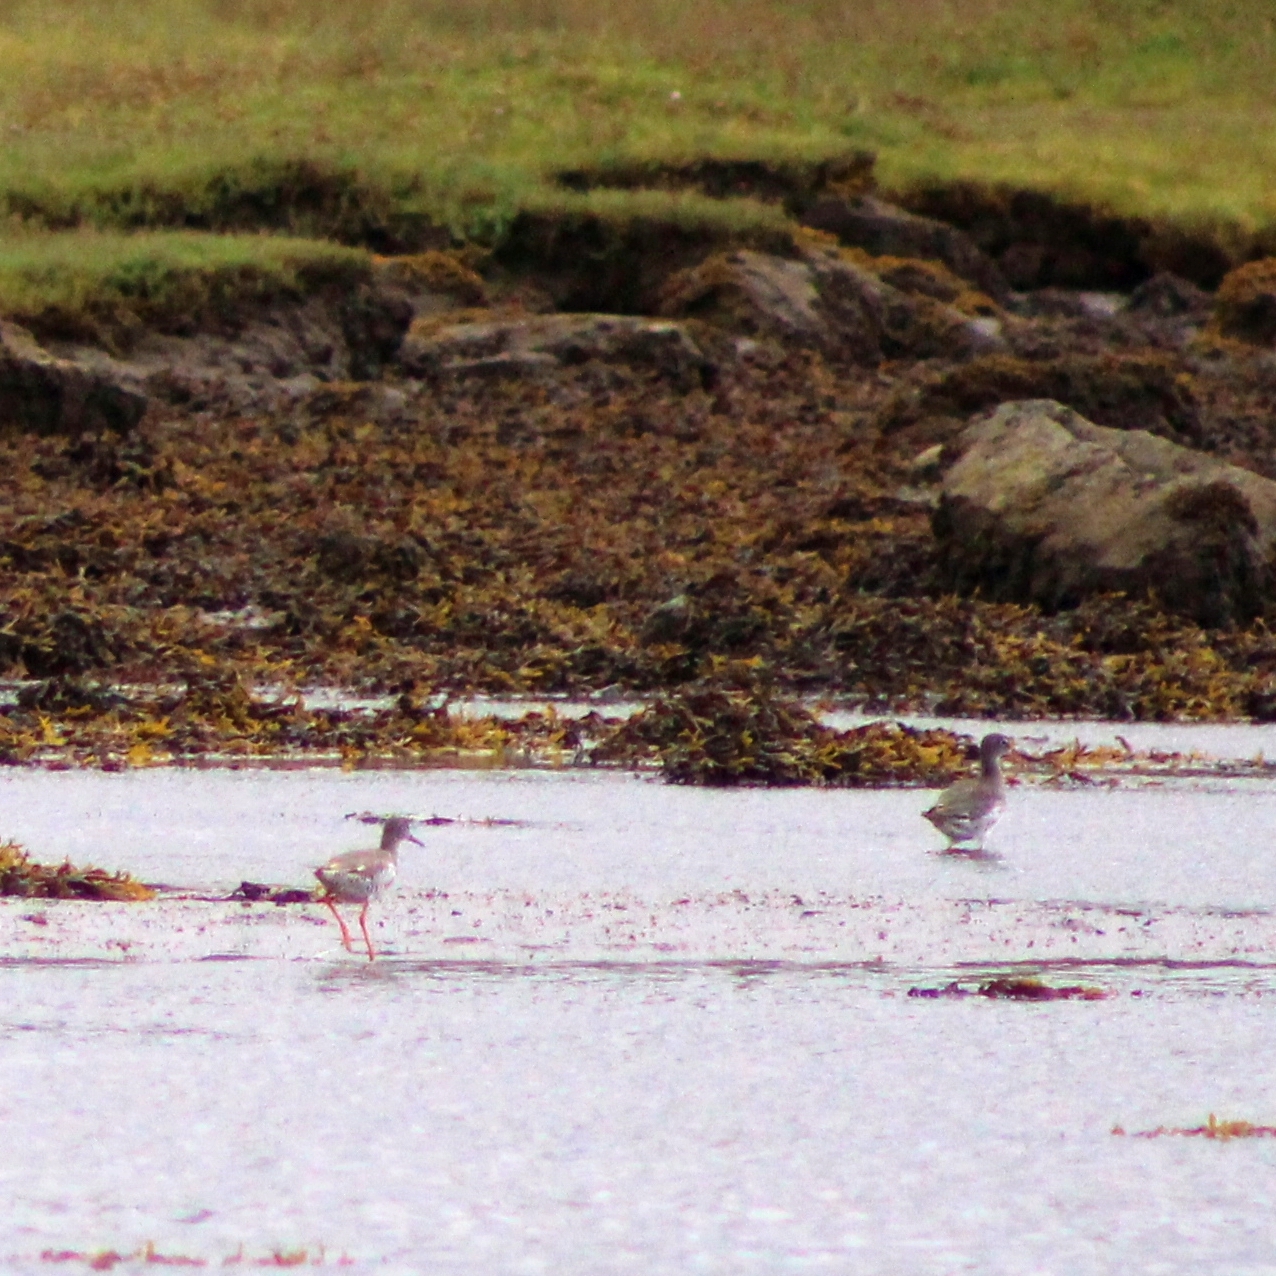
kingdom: Animalia
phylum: Chordata
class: Aves
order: Charadriiformes
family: Scolopacidae
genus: Tringa
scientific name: Tringa totanus
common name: Common redshank
